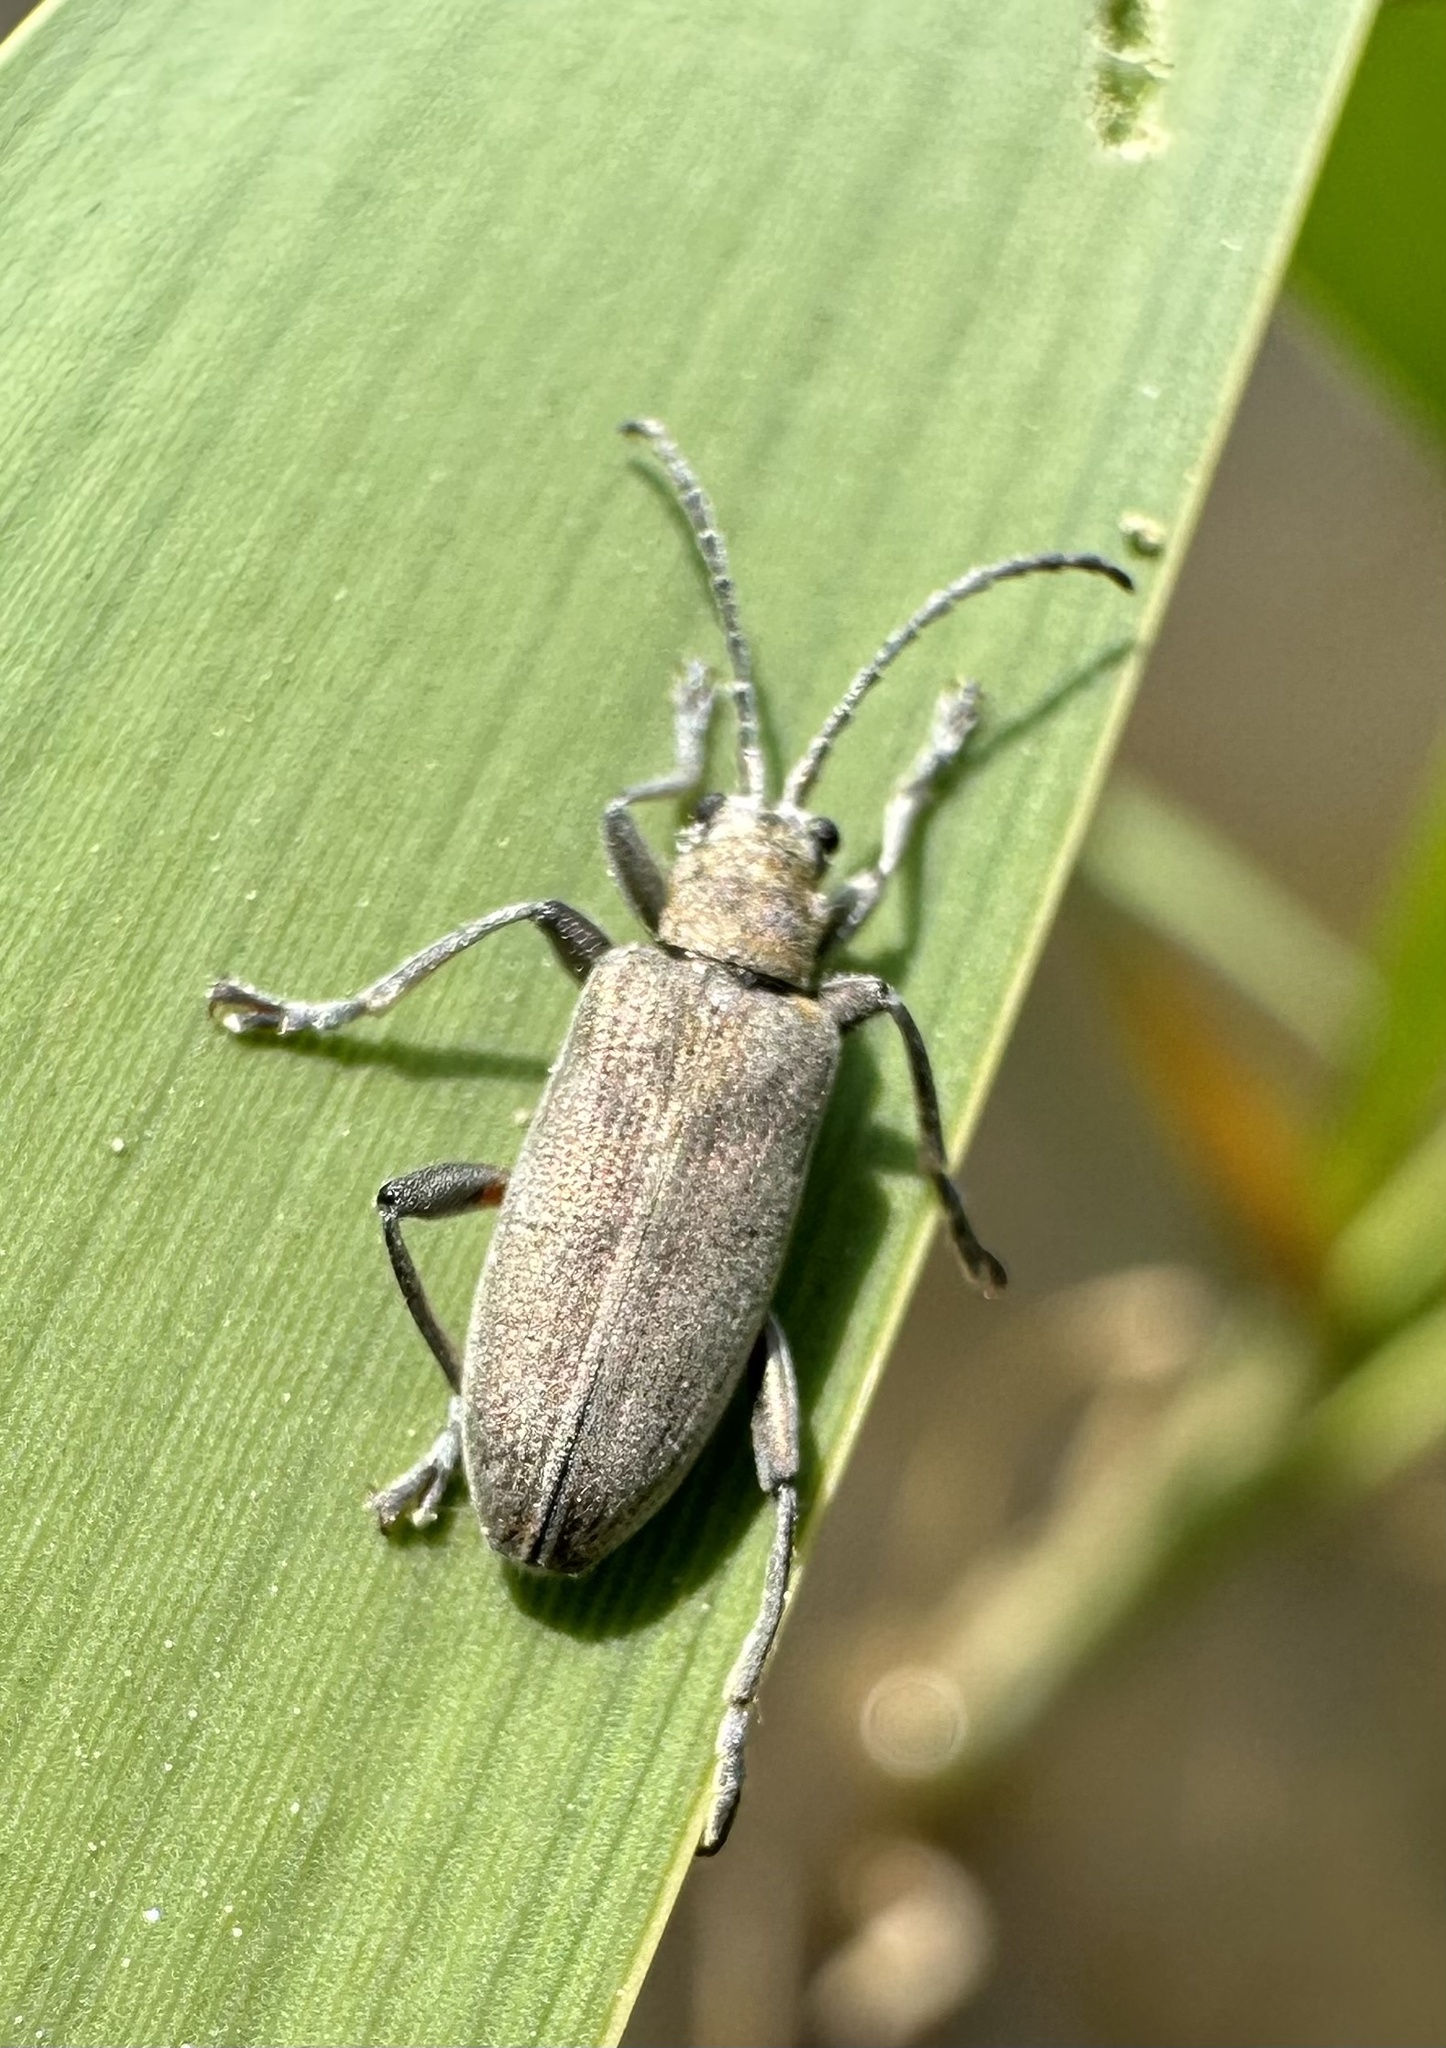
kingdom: Animalia
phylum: Arthropoda
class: Insecta
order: Coleoptera
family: Chrysomelidae
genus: Donacia
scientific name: Donacia cinerea
